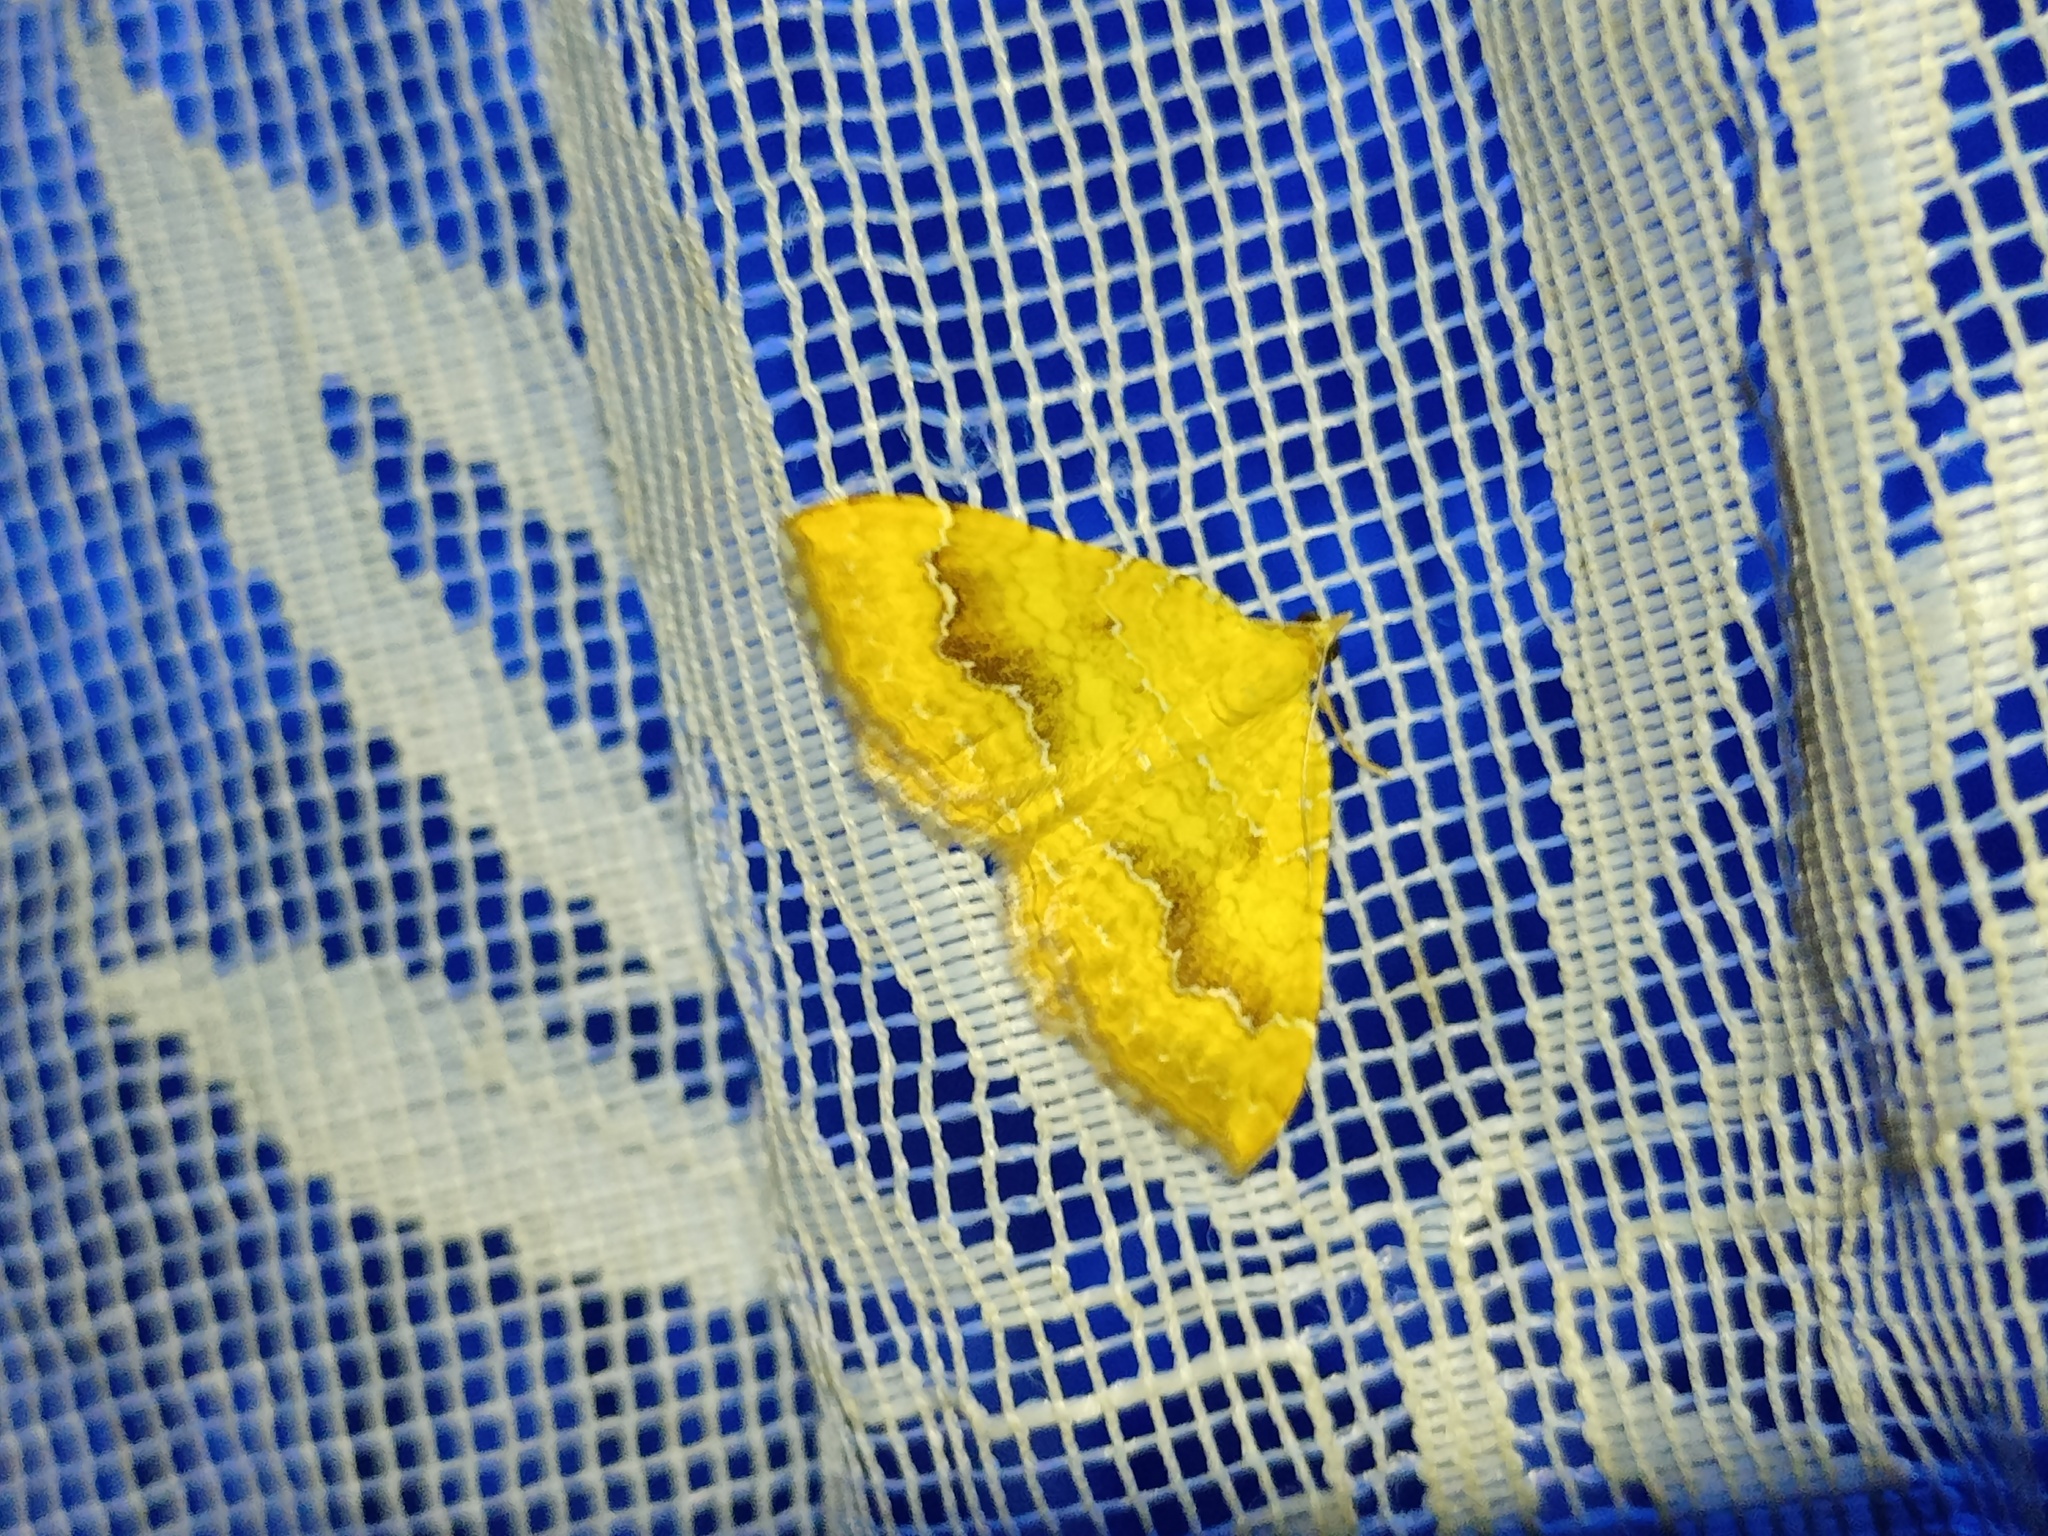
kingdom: Animalia
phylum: Arthropoda
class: Insecta
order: Lepidoptera
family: Geometridae
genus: Camptogramma
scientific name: Camptogramma bilineata
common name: Yellow shell
